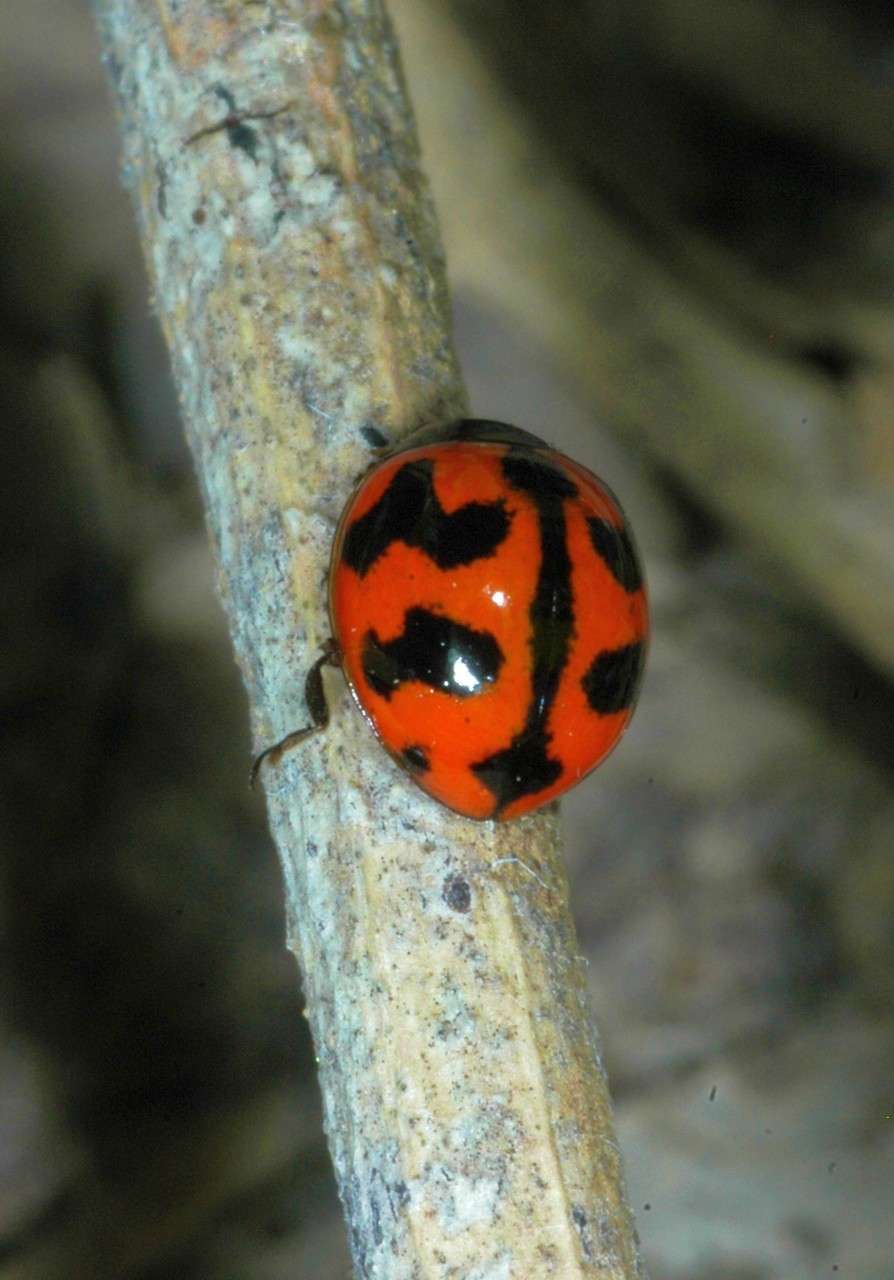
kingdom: Animalia
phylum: Arthropoda
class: Insecta
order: Coleoptera
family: Coccinellidae
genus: Coccinella
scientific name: Coccinella transversalis
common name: Transverse lady beetle
